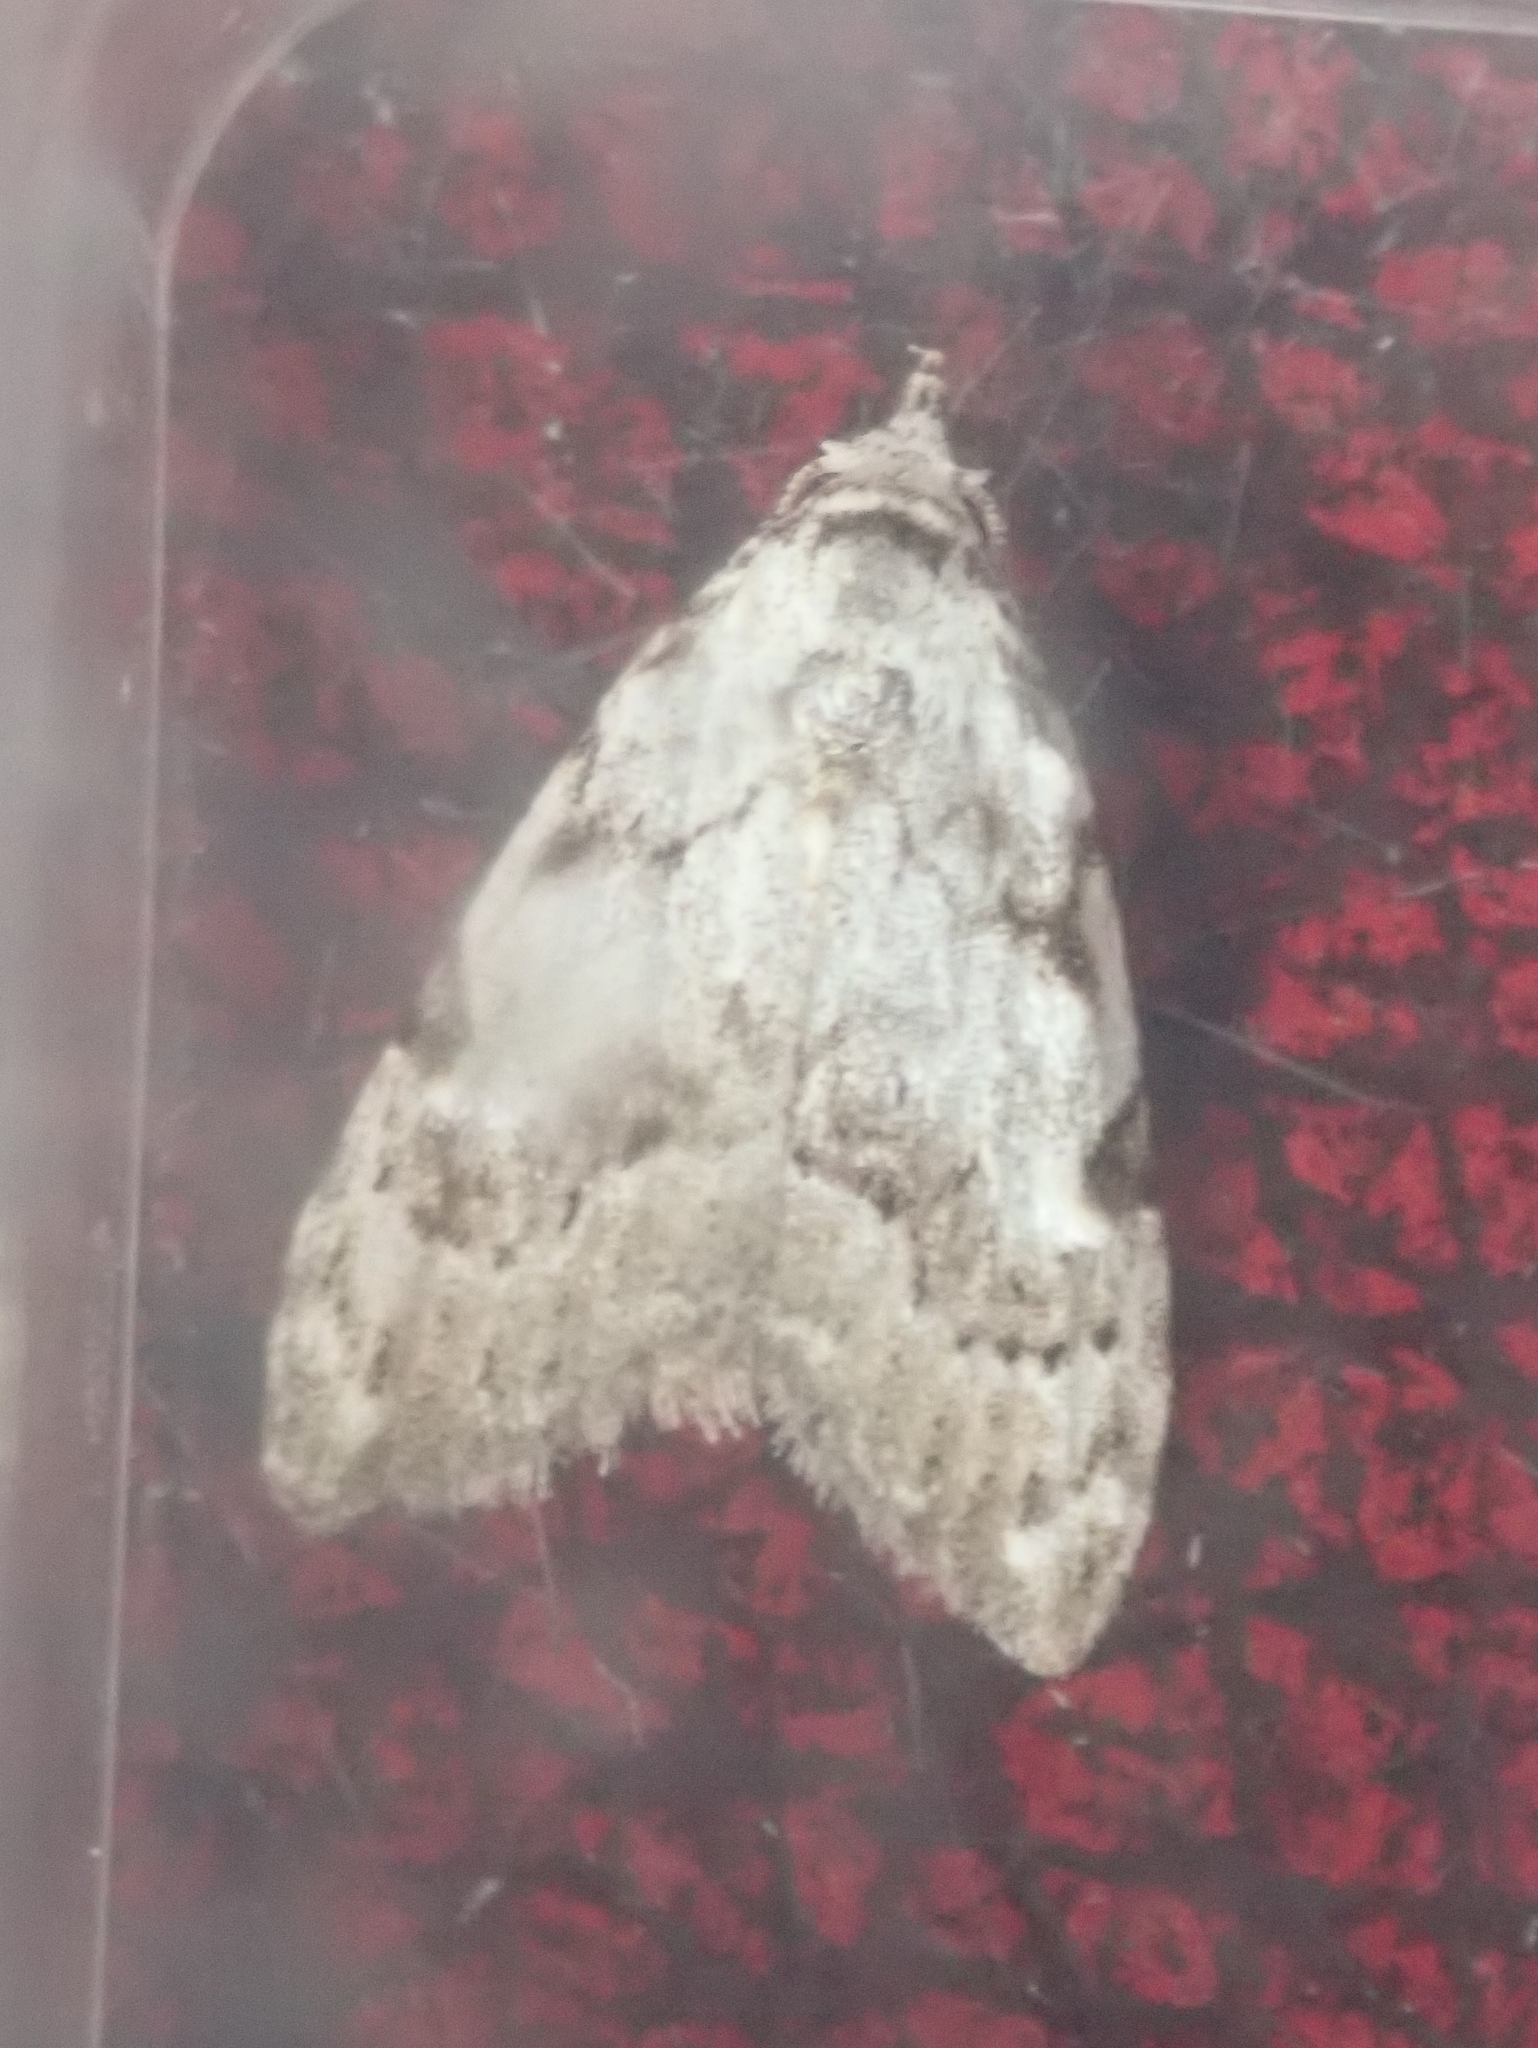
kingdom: Animalia
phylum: Arthropoda
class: Insecta
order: Lepidoptera
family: Nolidae
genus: Nola
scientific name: Nola confusalis
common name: Least black arches
